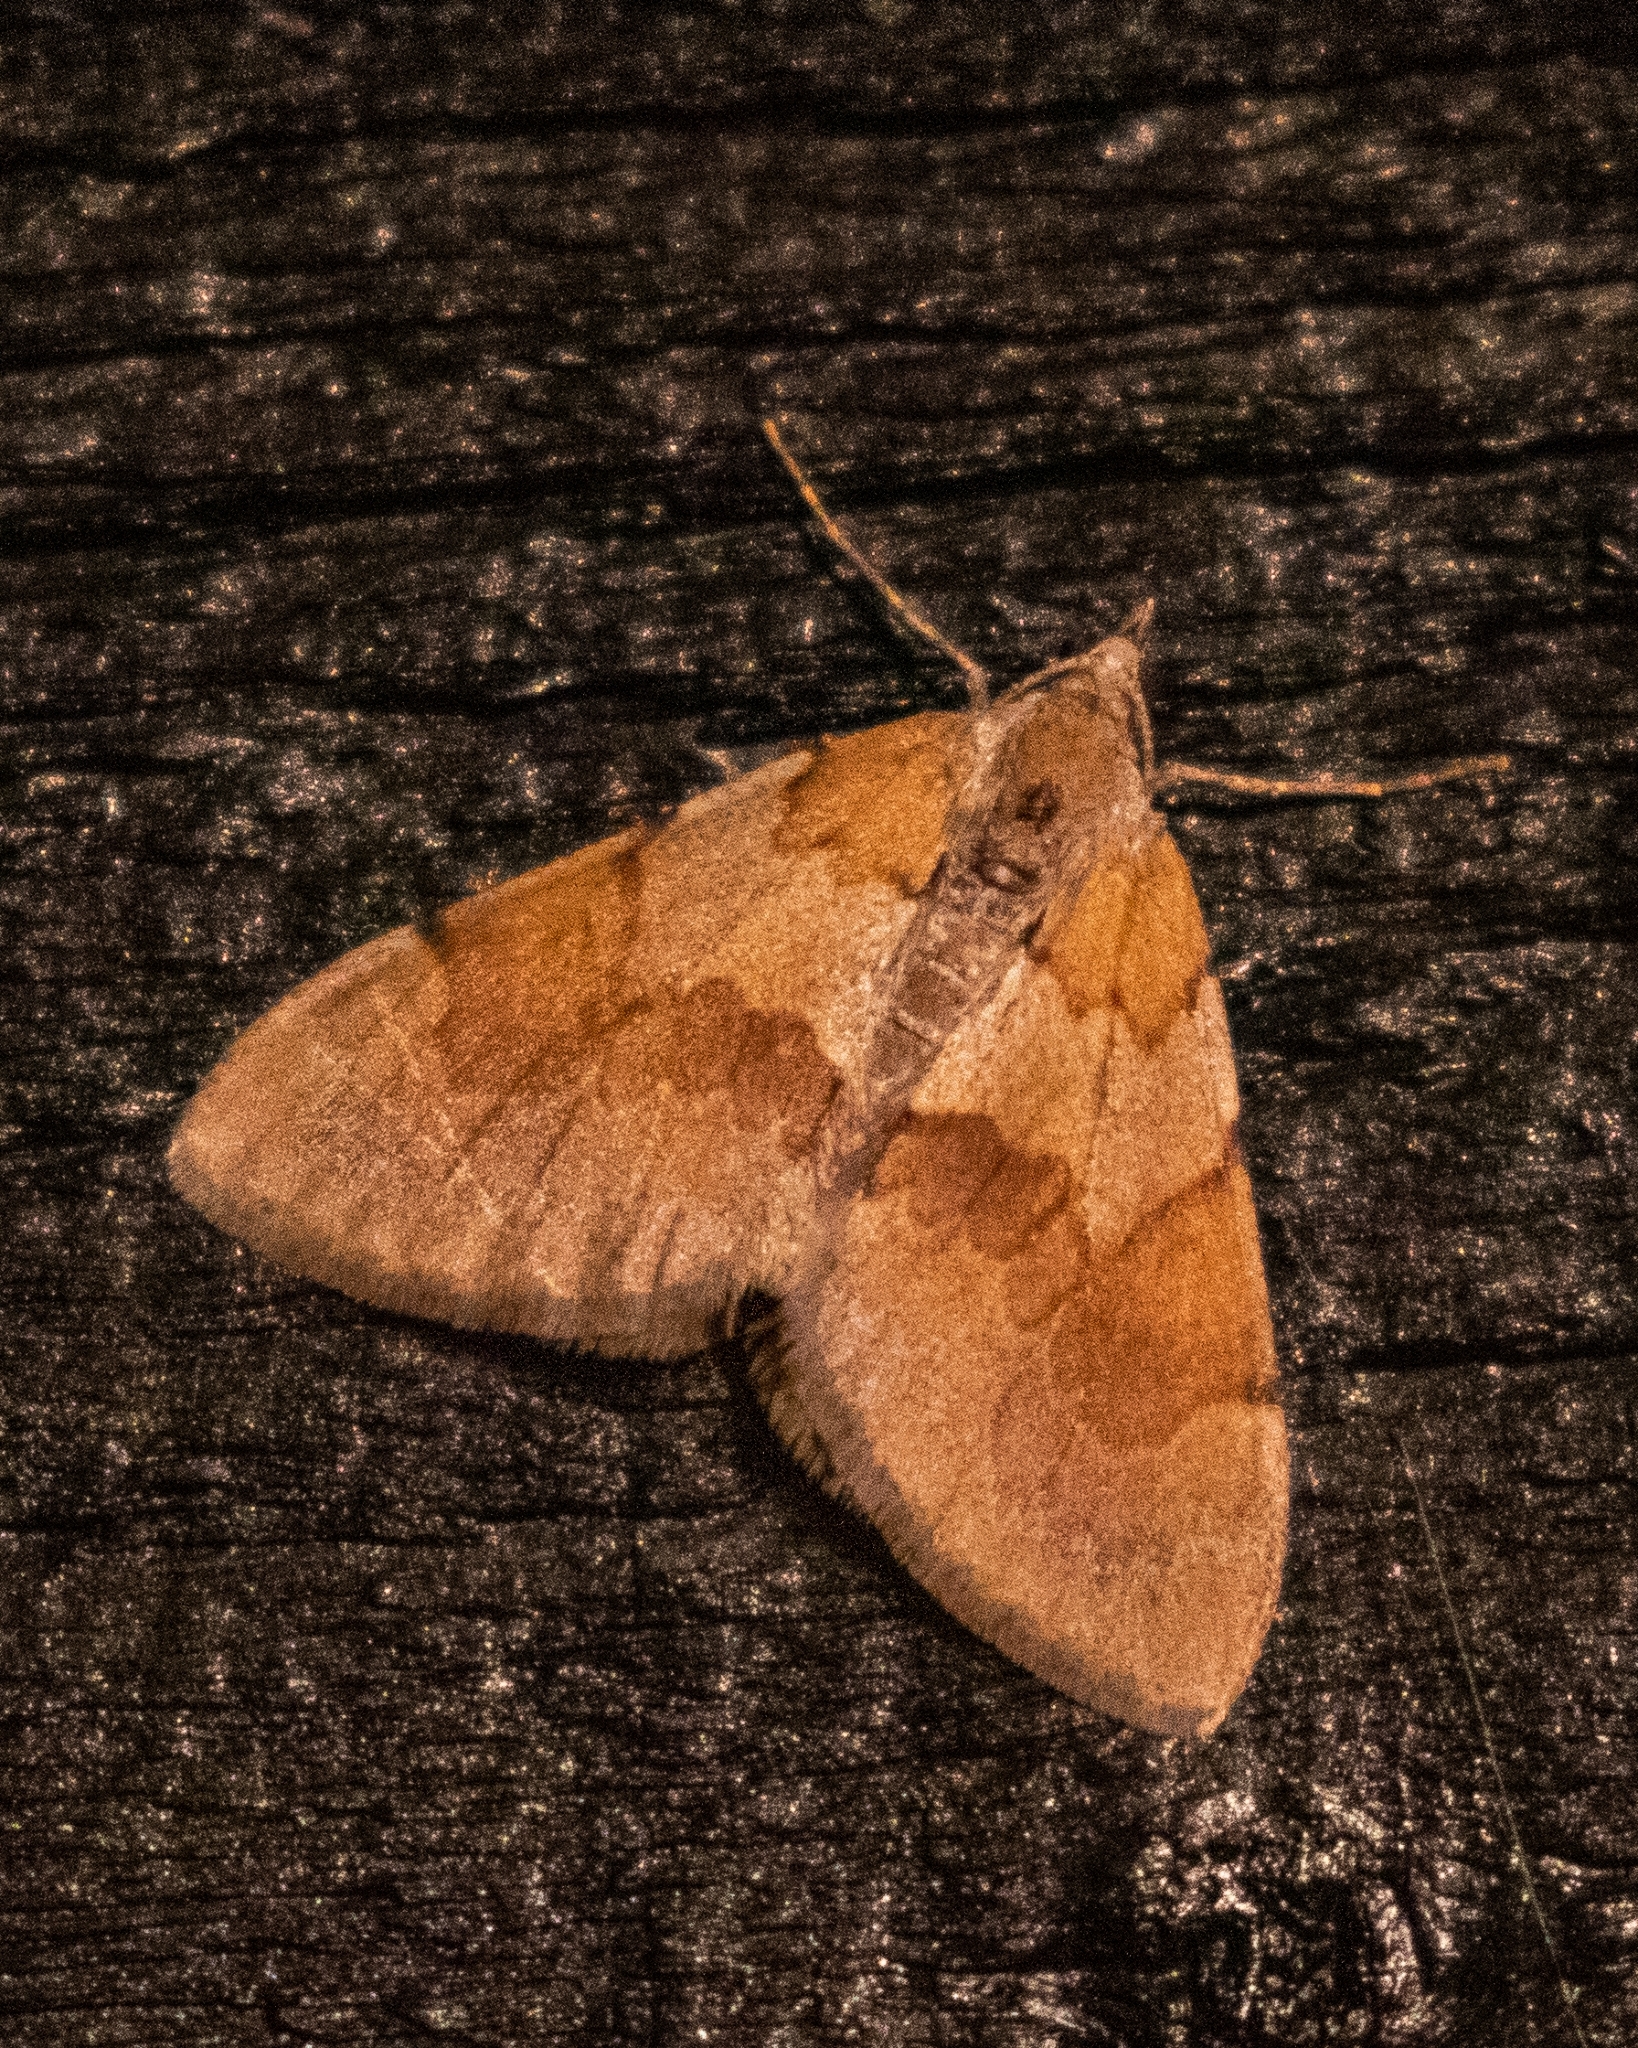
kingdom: Animalia
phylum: Arthropoda
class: Insecta
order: Lepidoptera
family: Geometridae
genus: Pennithera
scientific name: Pennithera firmata
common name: Pine carpet
